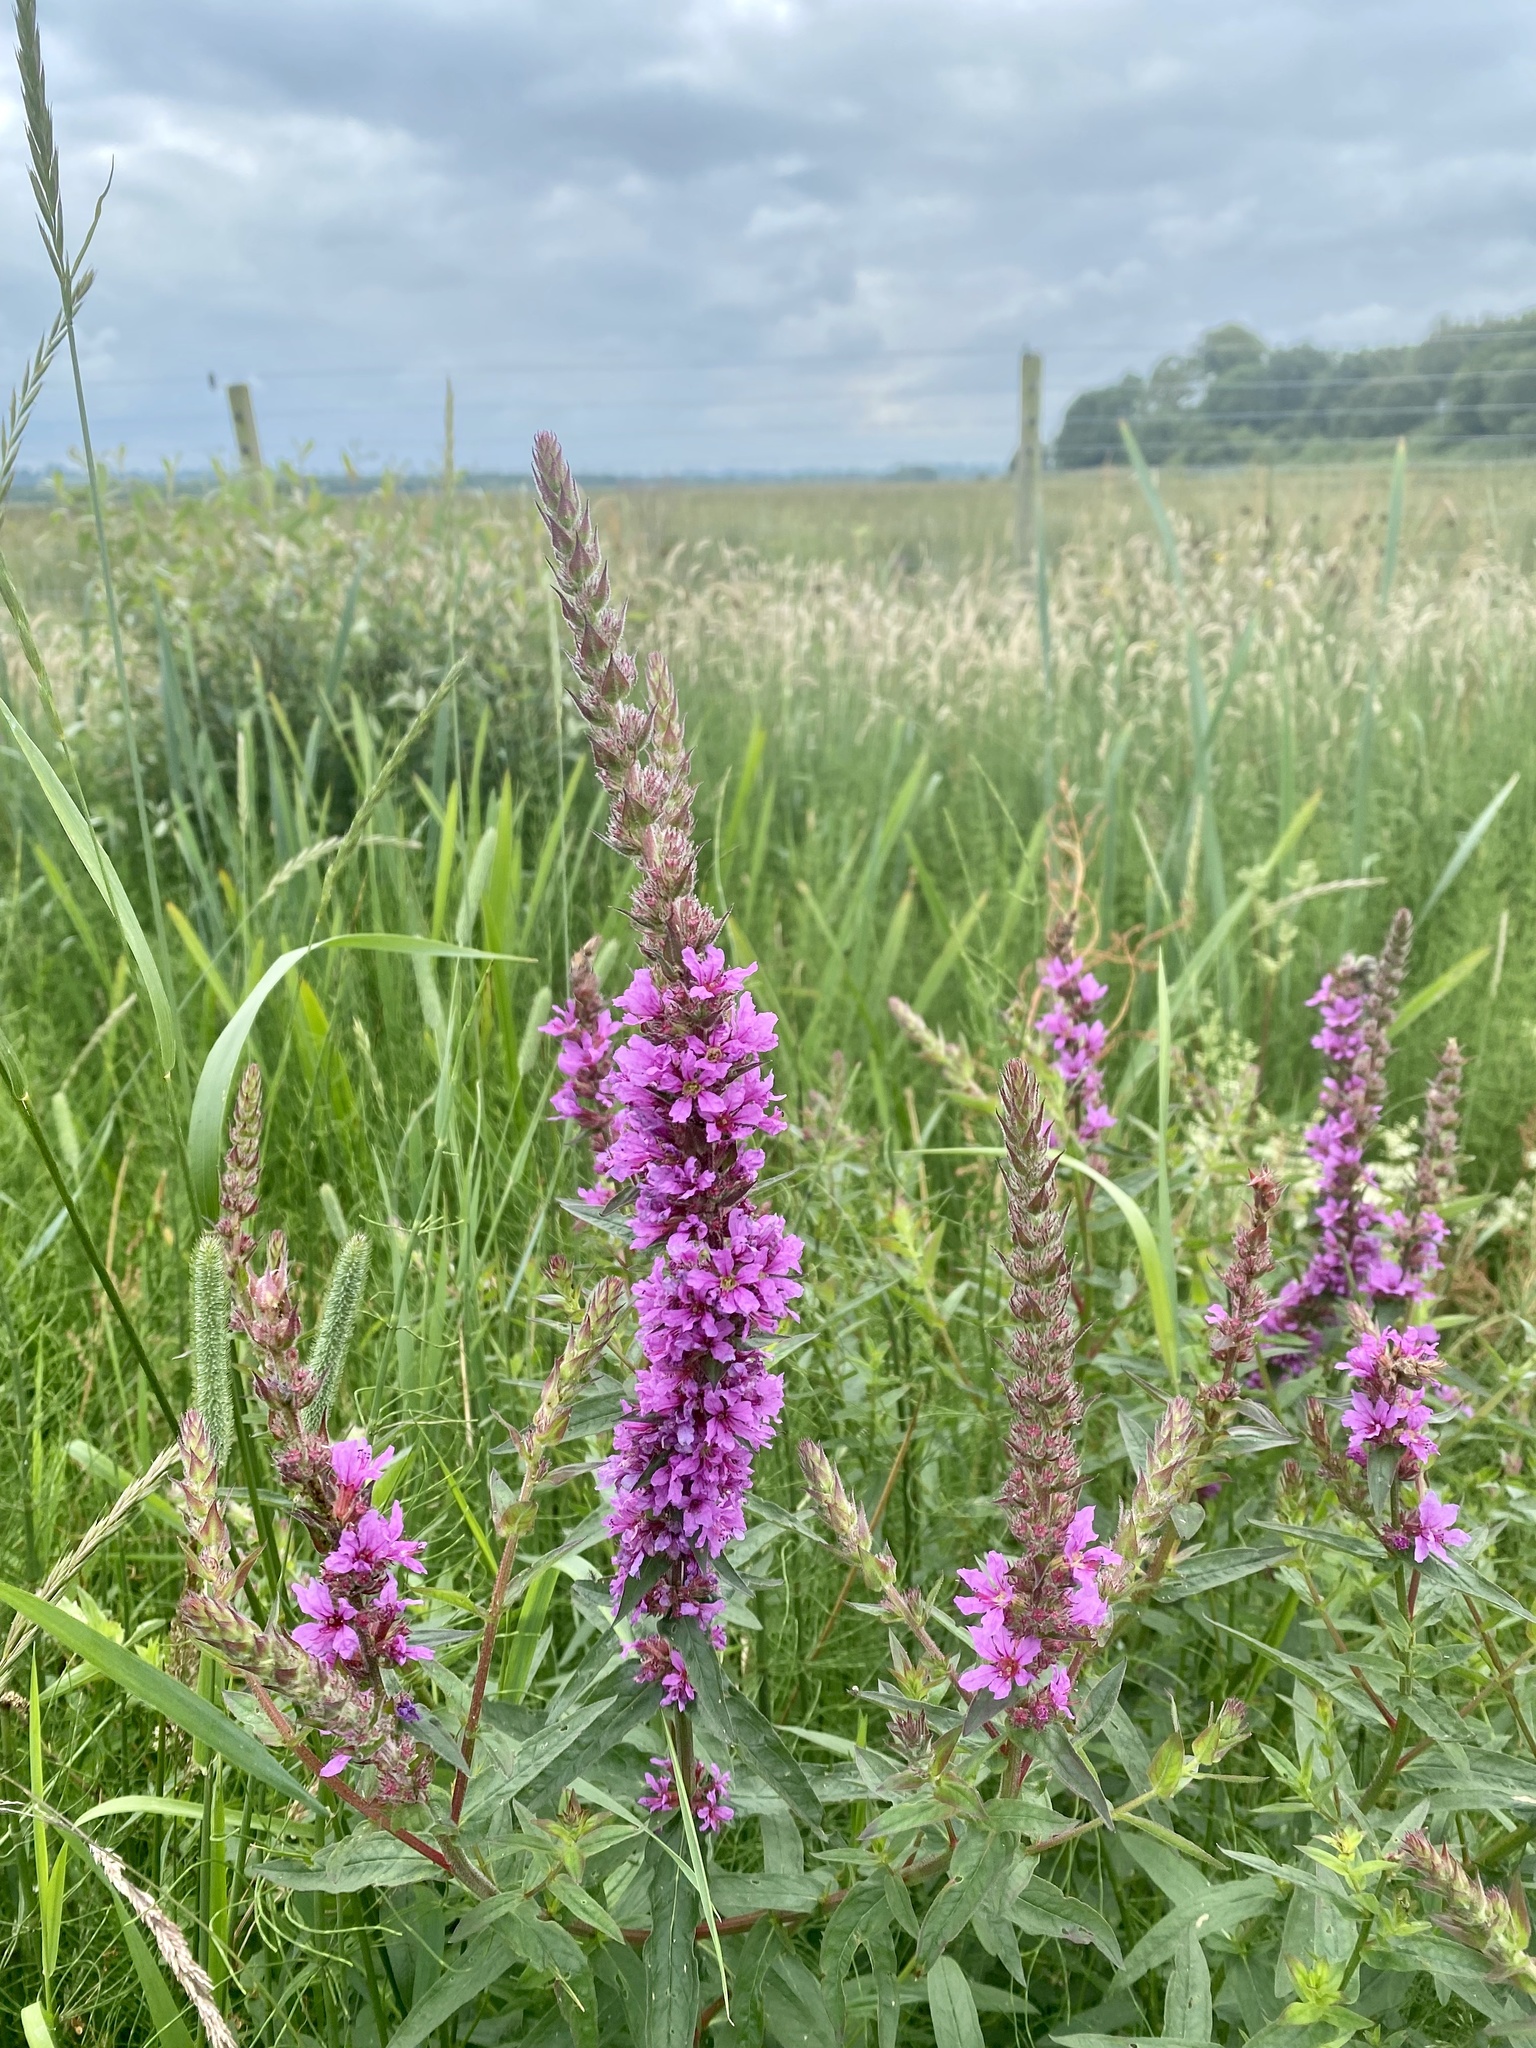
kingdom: Plantae
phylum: Tracheophyta
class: Magnoliopsida
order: Myrtales
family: Lythraceae
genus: Lythrum
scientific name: Lythrum salicaria
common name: Purple loosestrife
